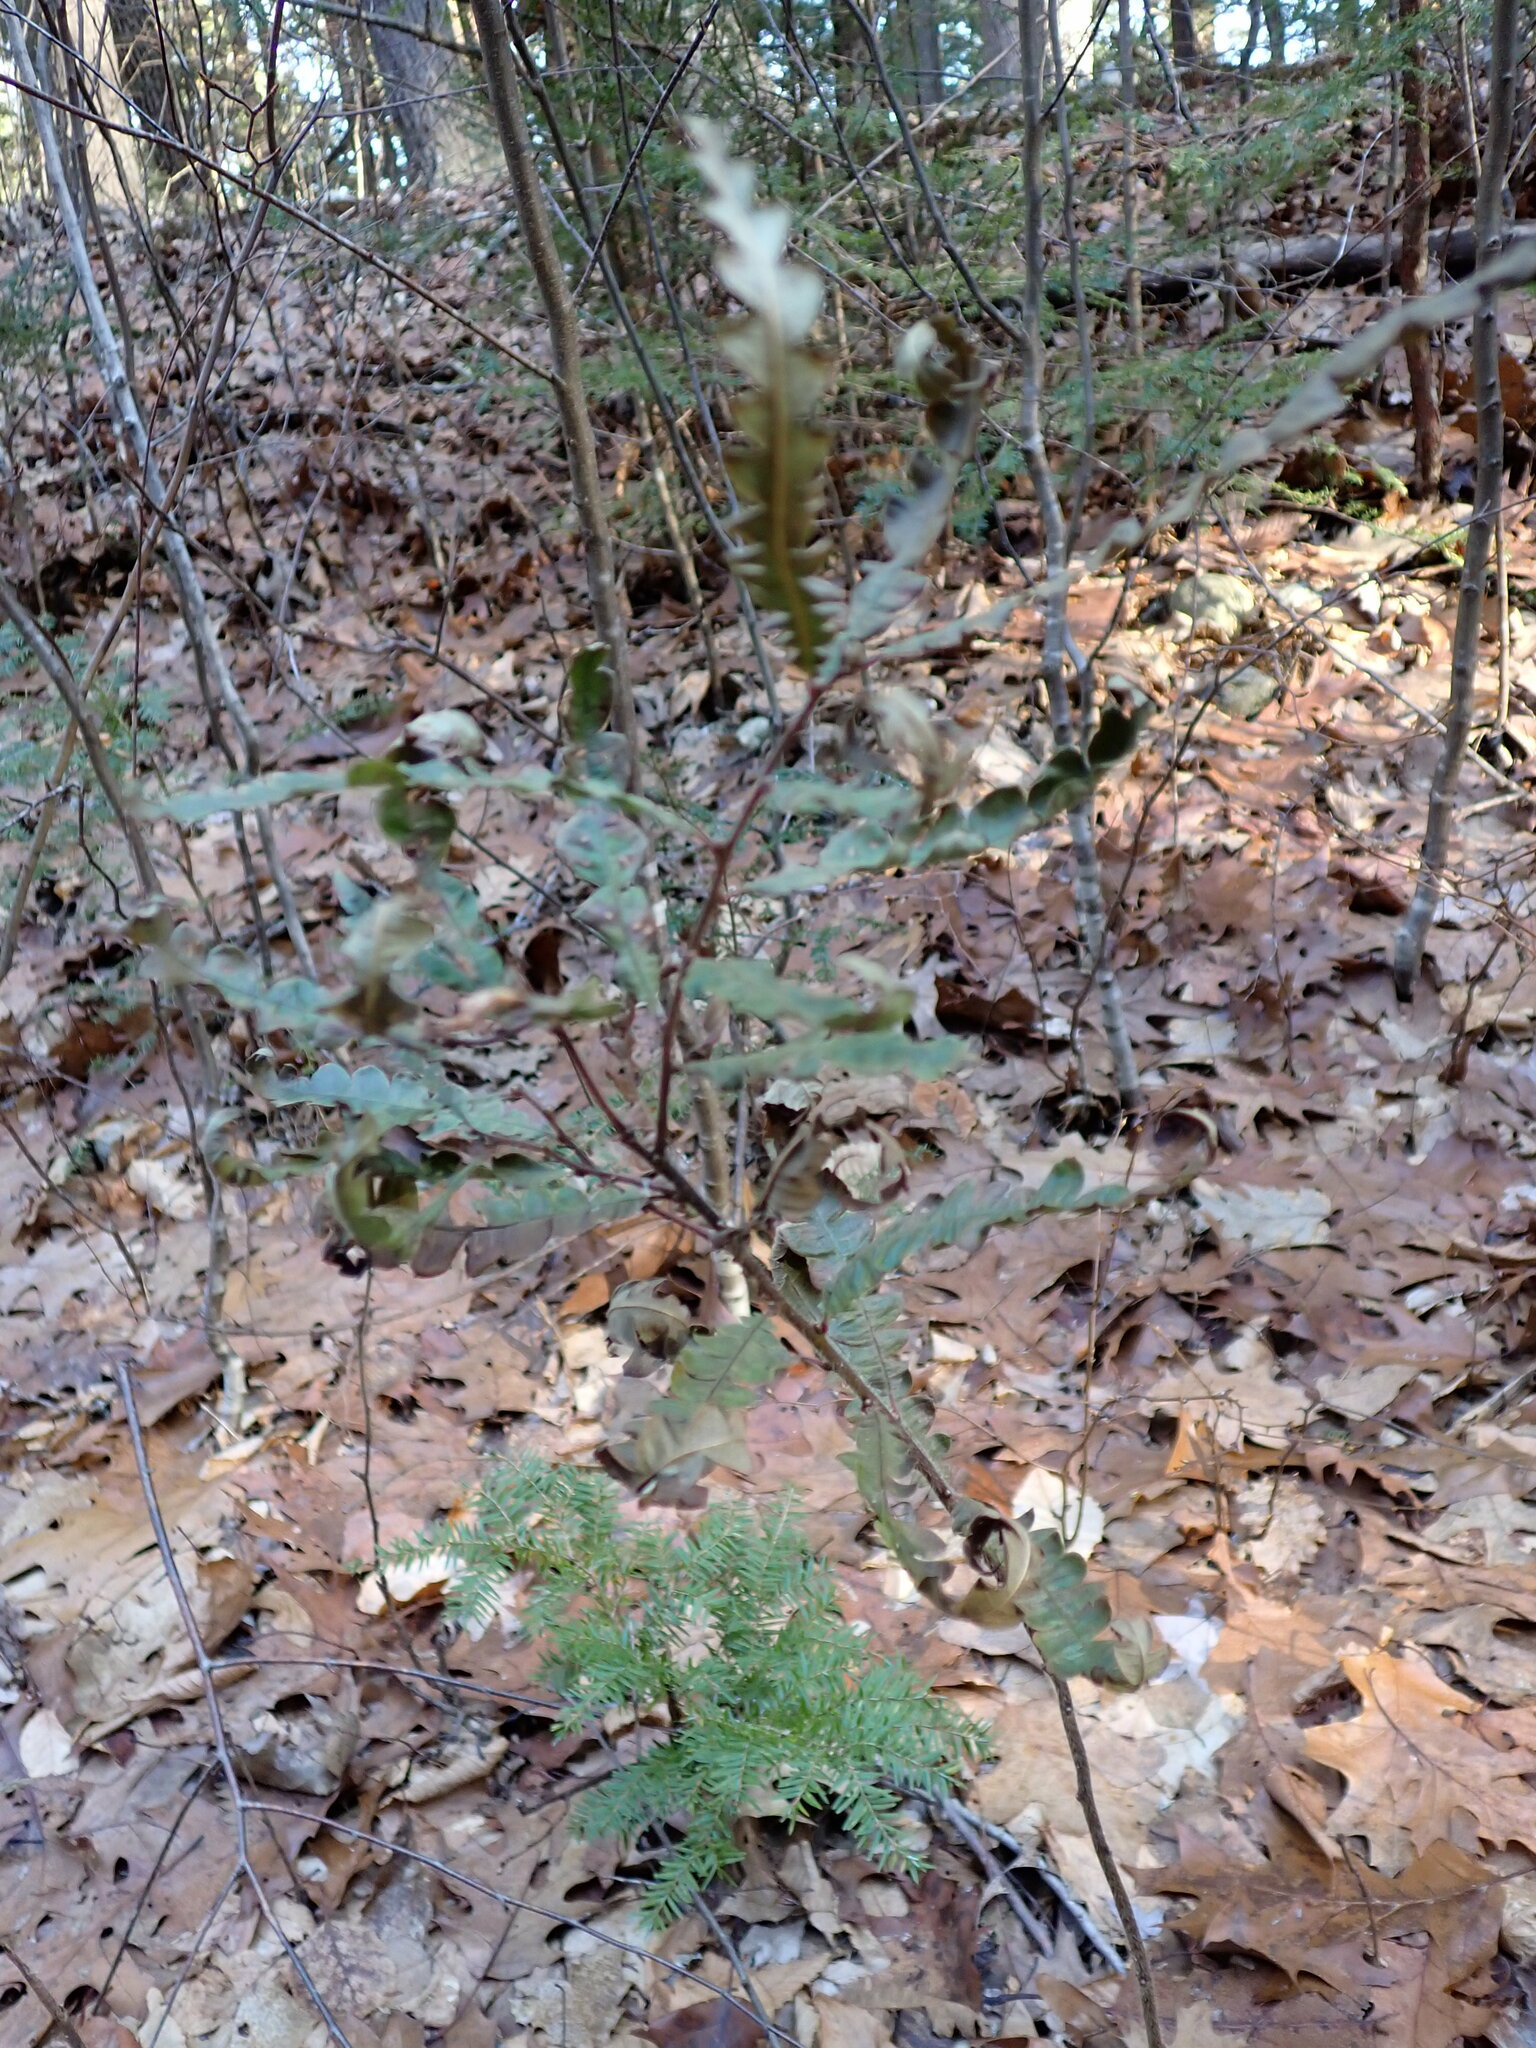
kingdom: Plantae
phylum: Tracheophyta
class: Magnoliopsida
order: Fagales
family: Myricaceae
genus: Comptonia
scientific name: Comptonia peregrina
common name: Sweet-fern
